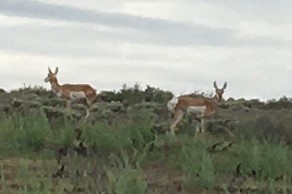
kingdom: Animalia
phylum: Chordata
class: Mammalia
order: Artiodactyla
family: Antilocapridae
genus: Antilocapra
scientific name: Antilocapra americana
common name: Pronghorn
